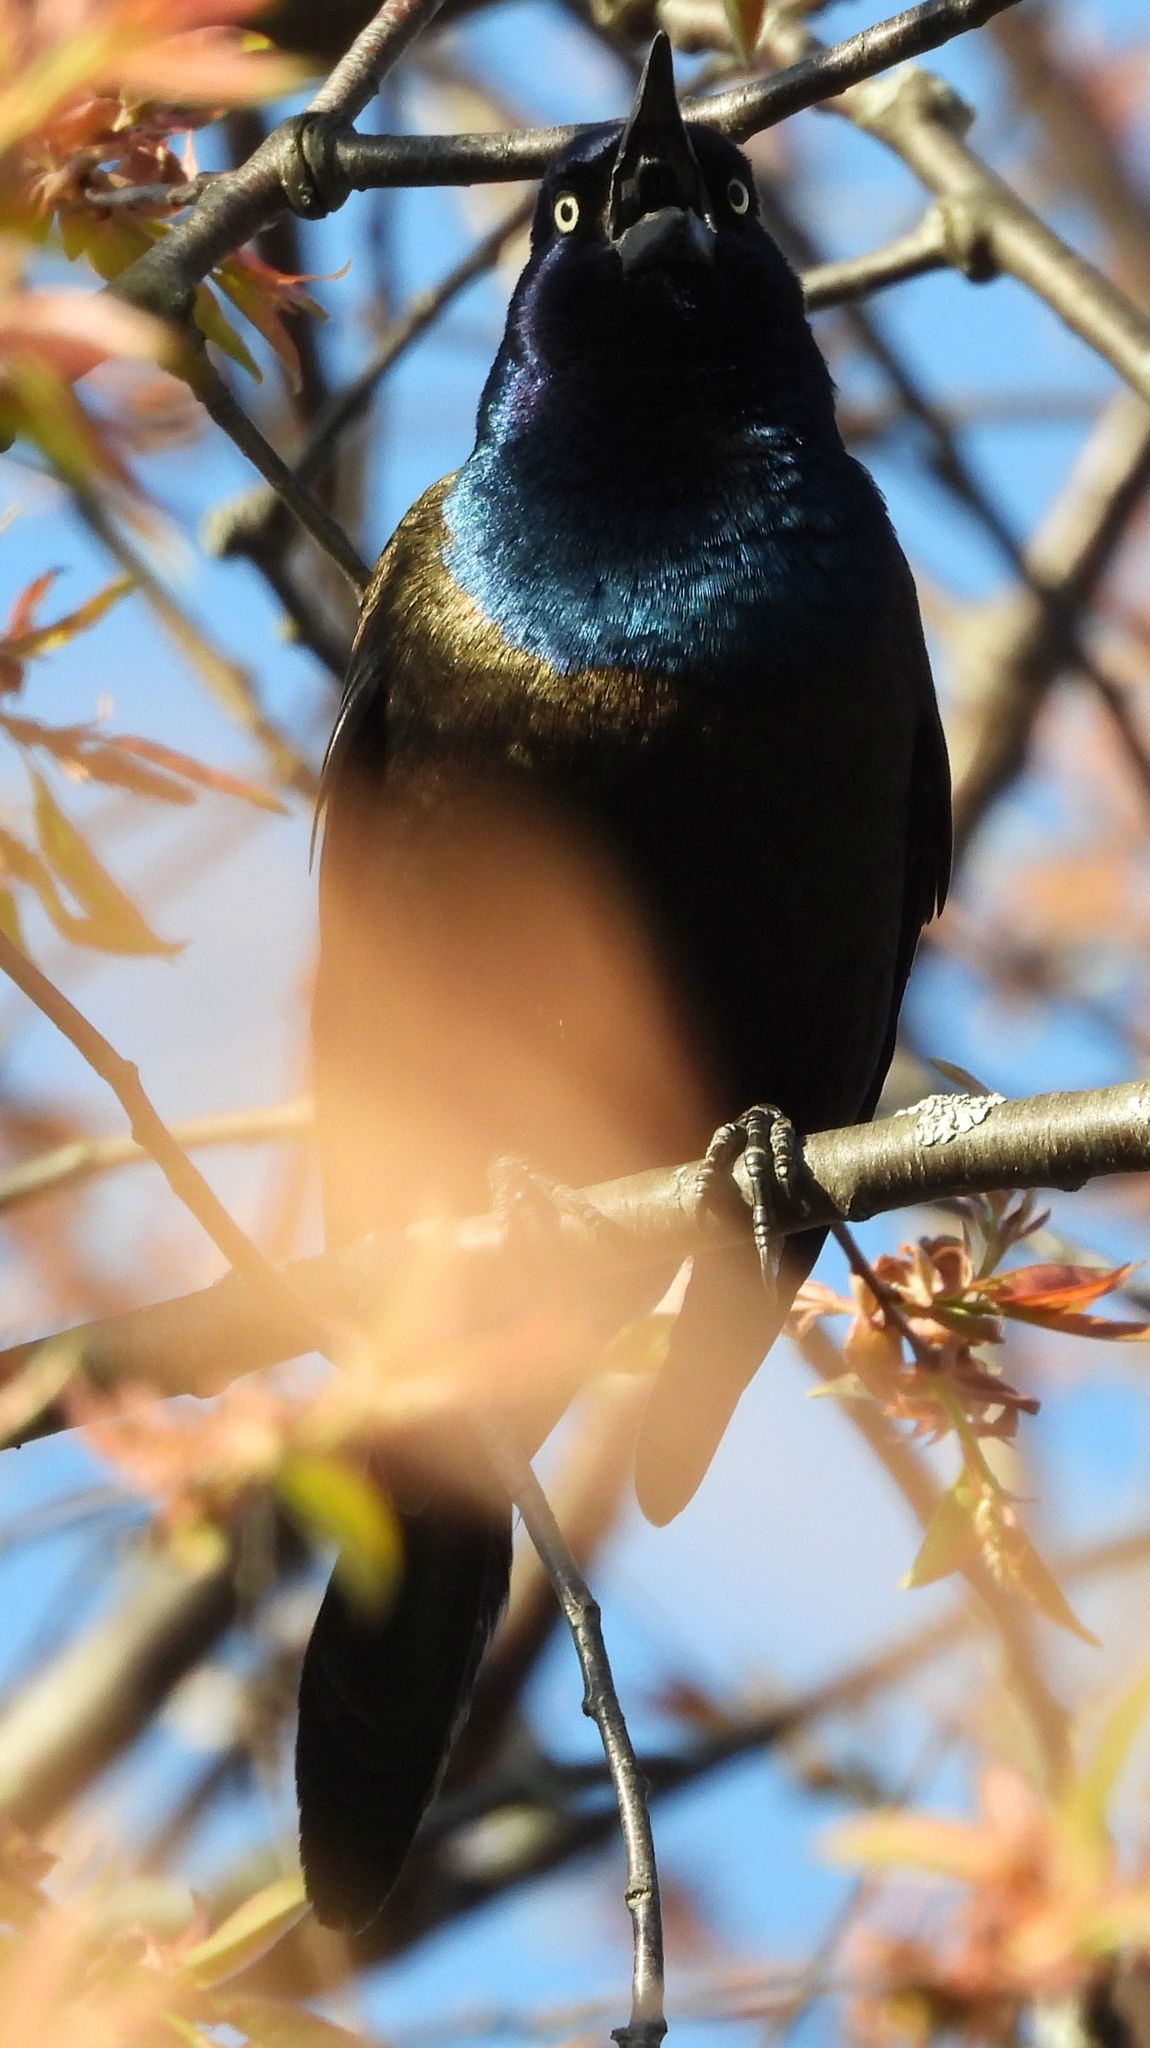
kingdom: Animalia
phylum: Chordata
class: Aves
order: Passeriformes
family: Icteridae
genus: Quiscalus
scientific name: Quiscalus quiscula
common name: Common grackle
